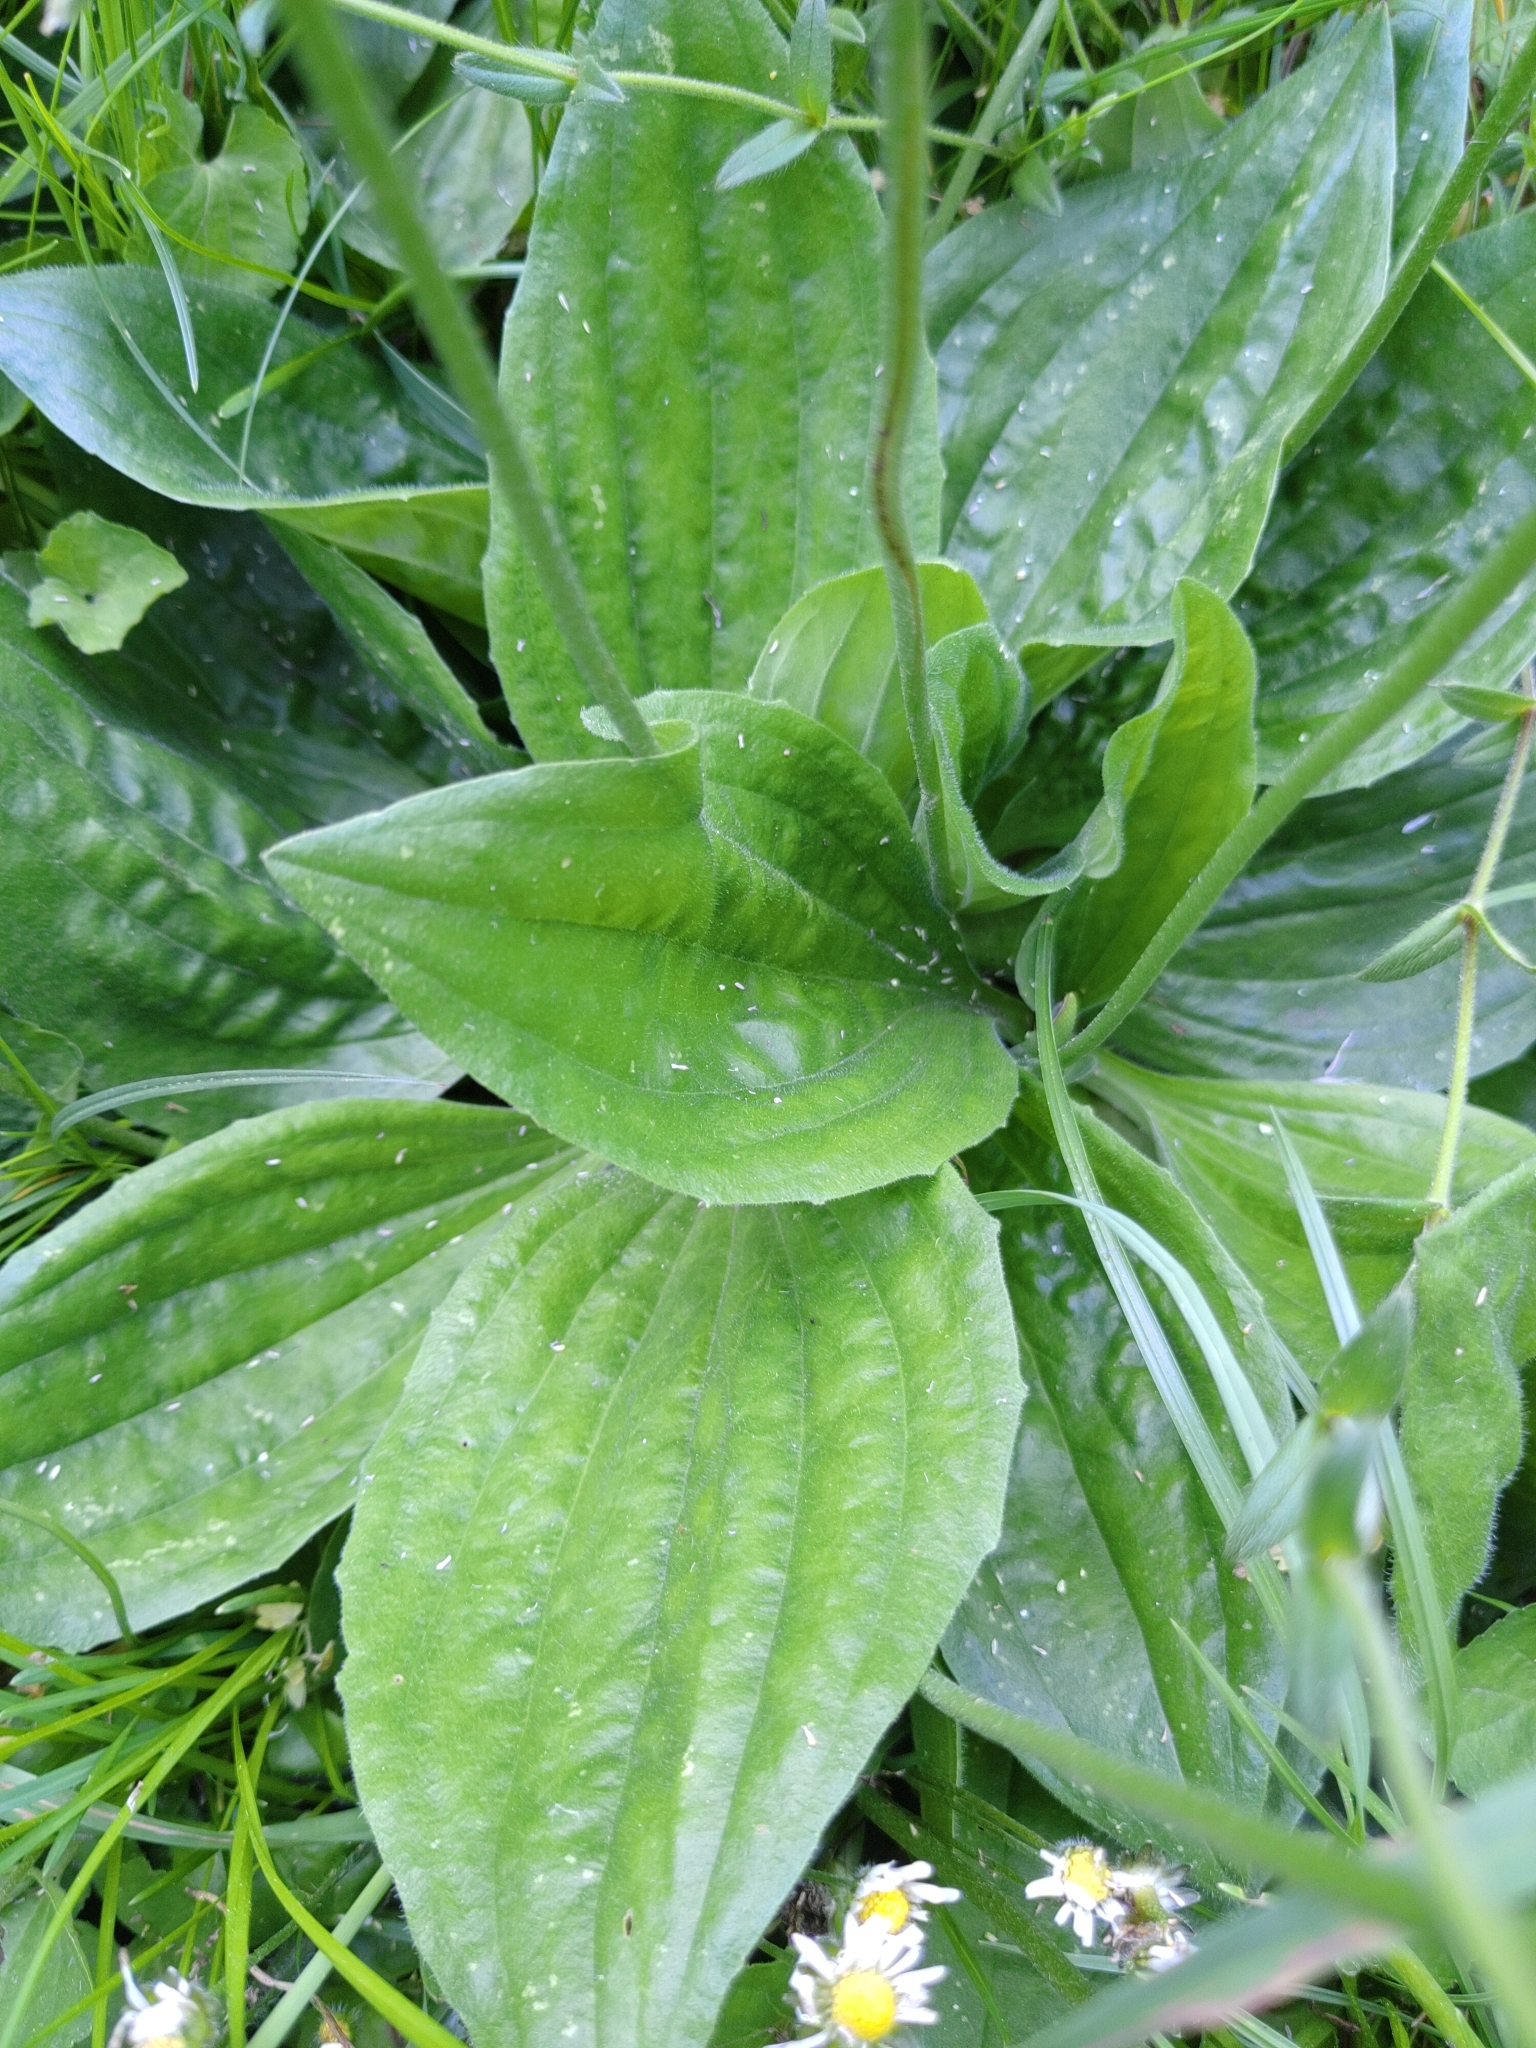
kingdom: Plantae
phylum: Tracheophyta
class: Magnoliopsida
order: Lamiales
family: Plantaginaceae
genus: Plantago
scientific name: Plantago media
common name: Hoary plantain
